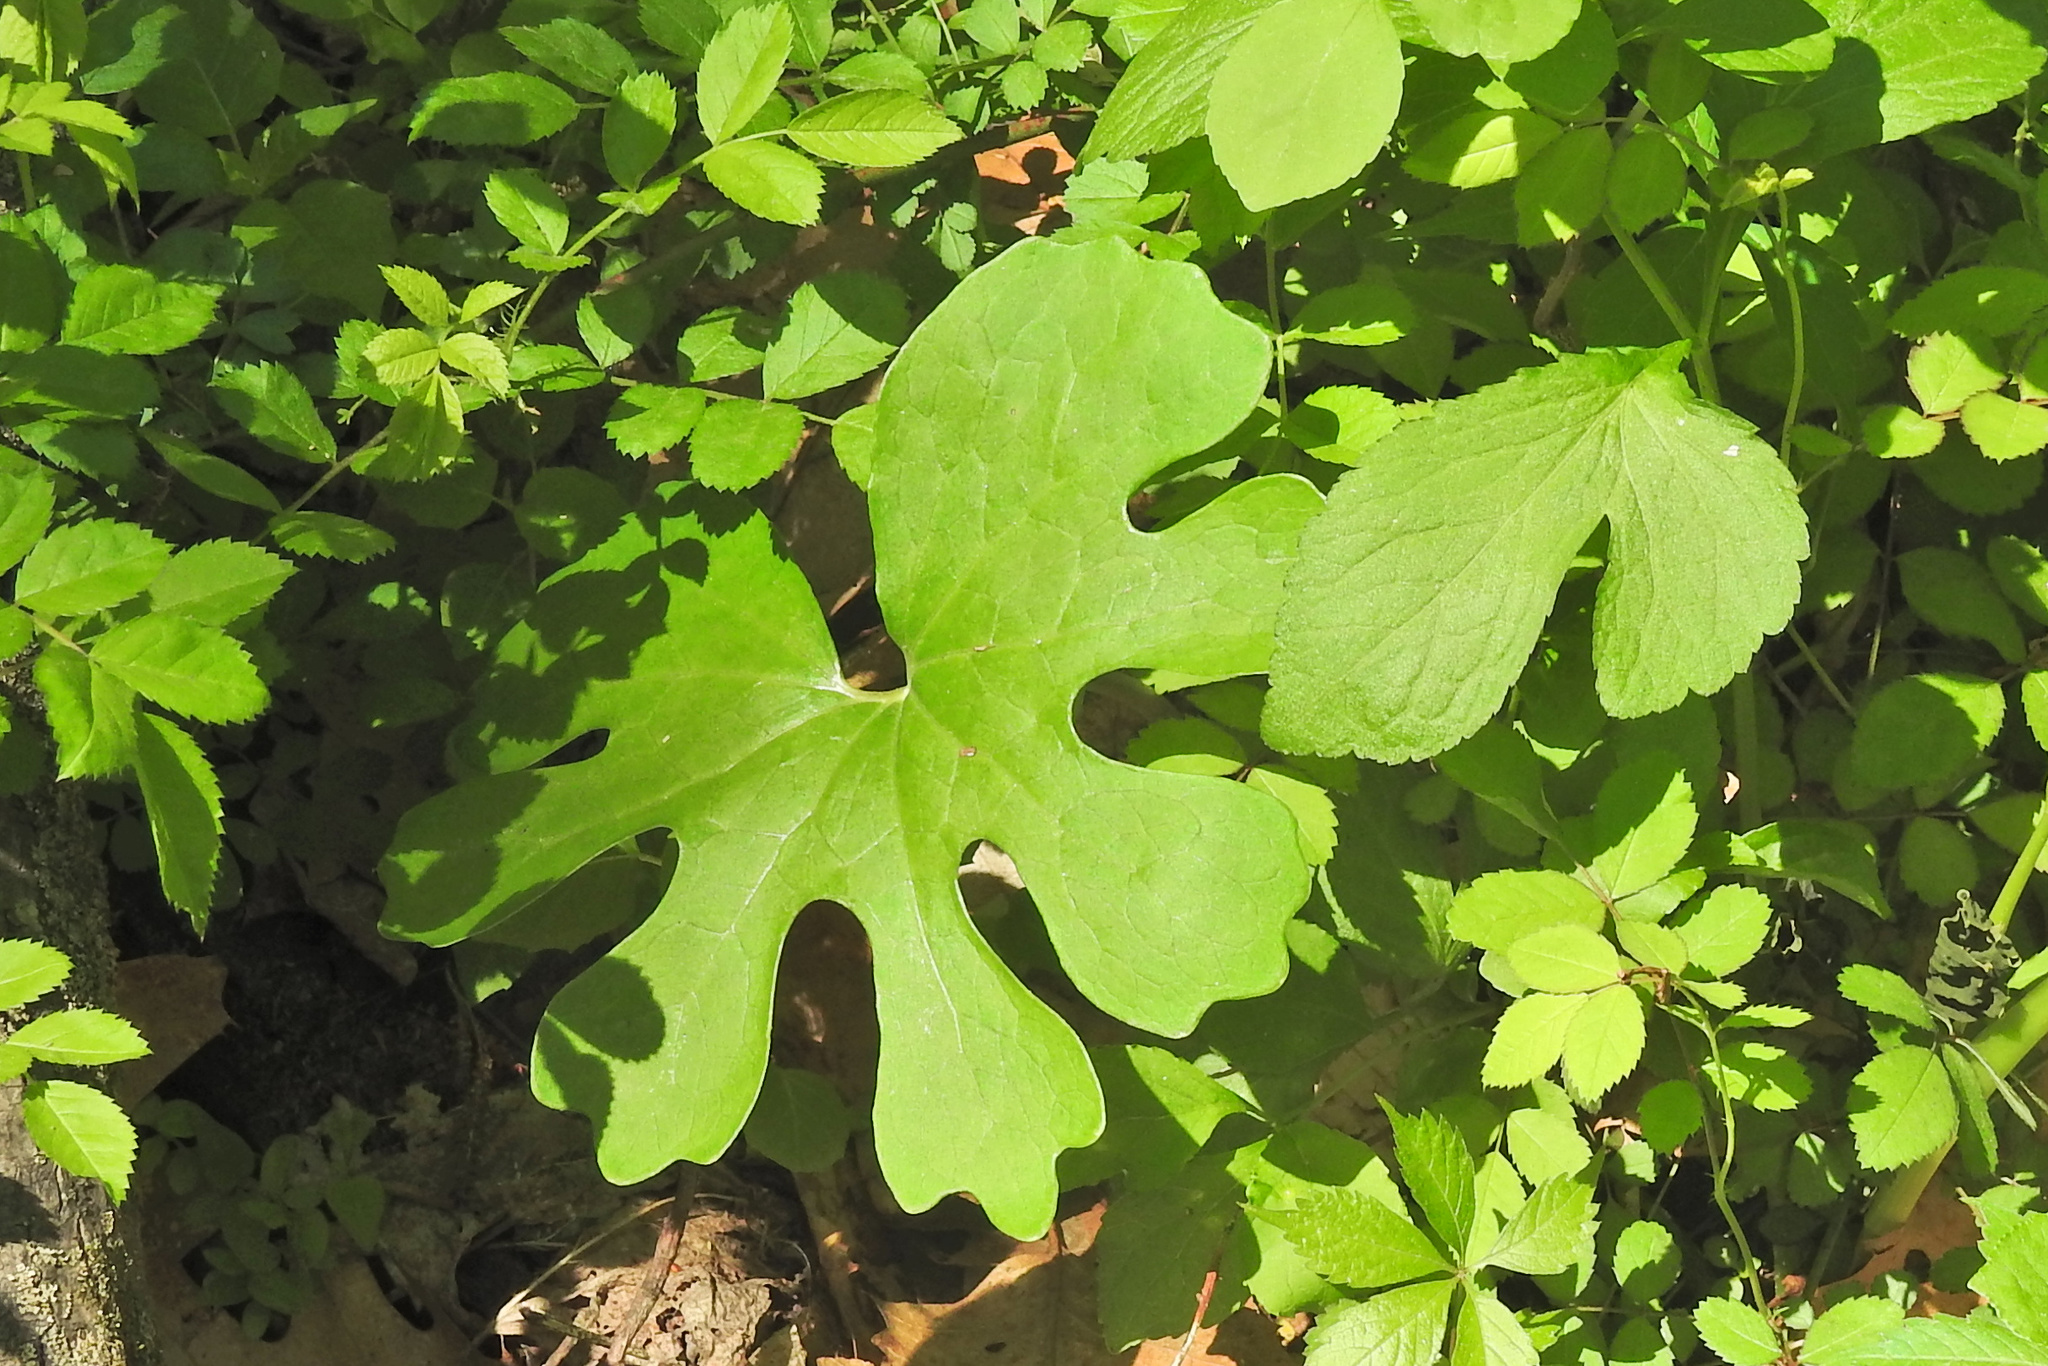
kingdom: Plantae
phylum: Tracheophyta
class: Magnoliopsida
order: Ranunculales
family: Papaveraceae
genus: Sanguinaria
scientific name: Sanguinaria canadensis
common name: Bloodroot
